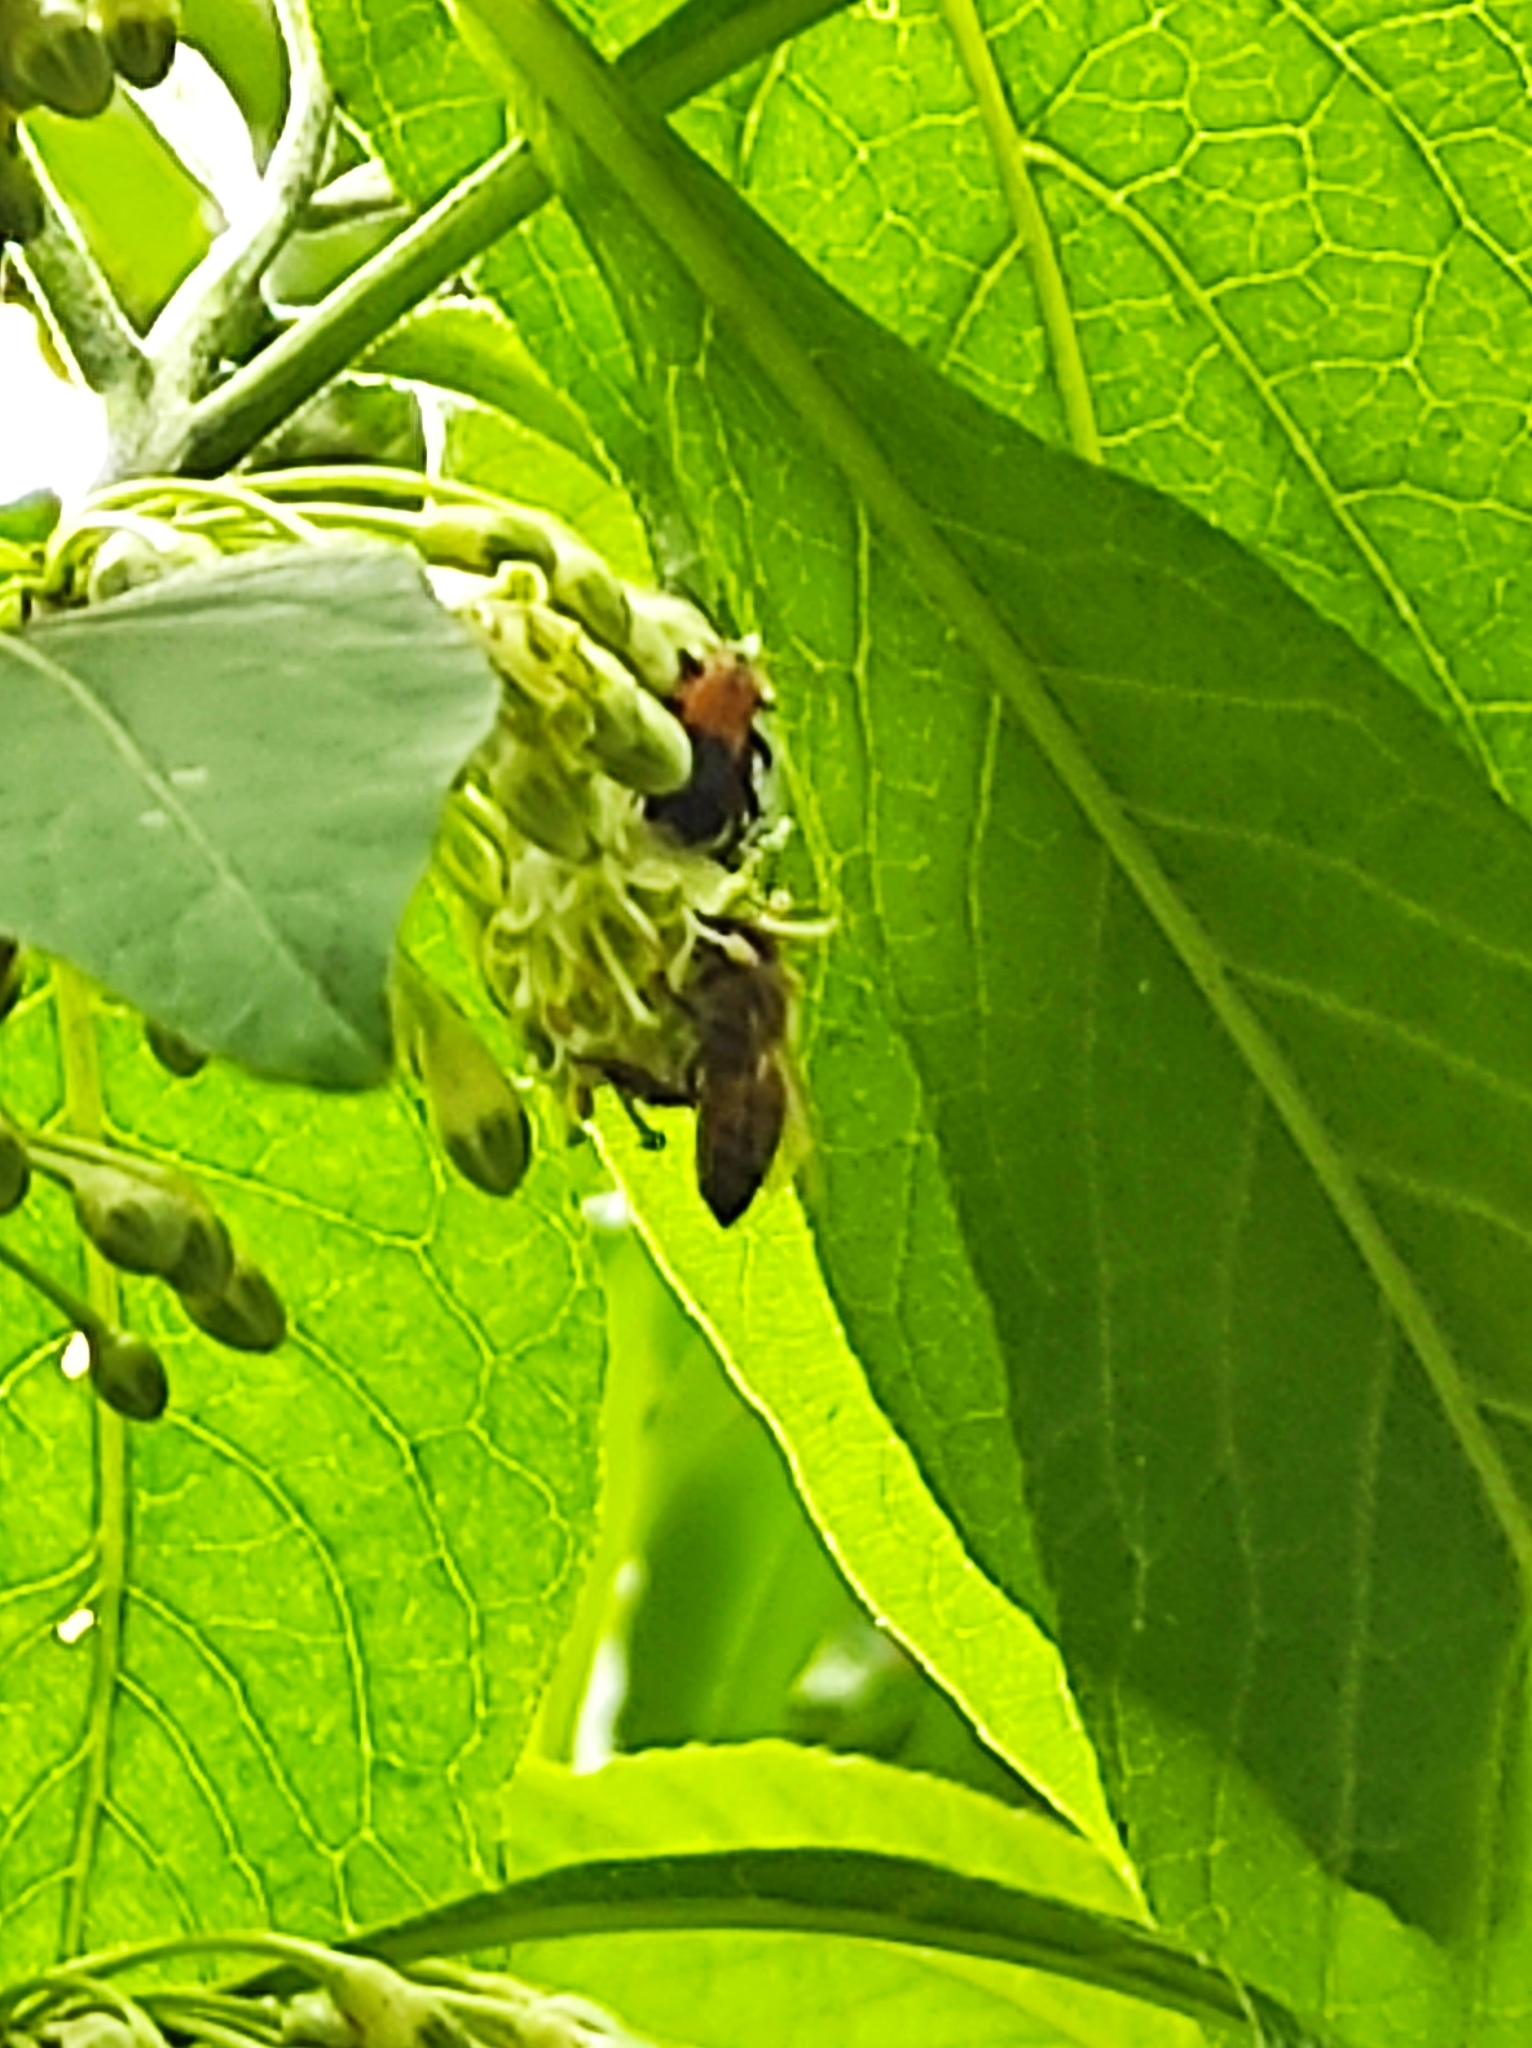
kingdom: Animalia
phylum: Arthropoda
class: Insecta
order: Hymenoptera
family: Apidae
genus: Apis
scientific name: Apis mellifera
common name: Honey bee
